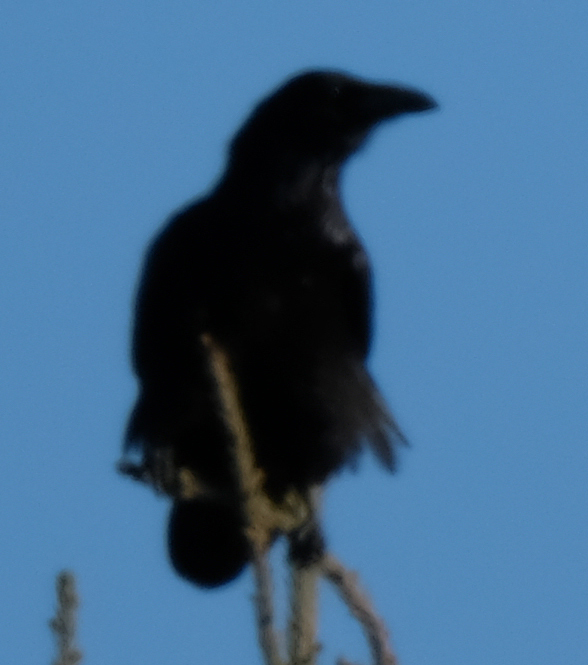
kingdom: Animalia
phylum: Chordata
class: Aves
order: Passeriformes
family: Corvidae
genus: Corvus
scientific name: Corvus corax
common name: Common raven
